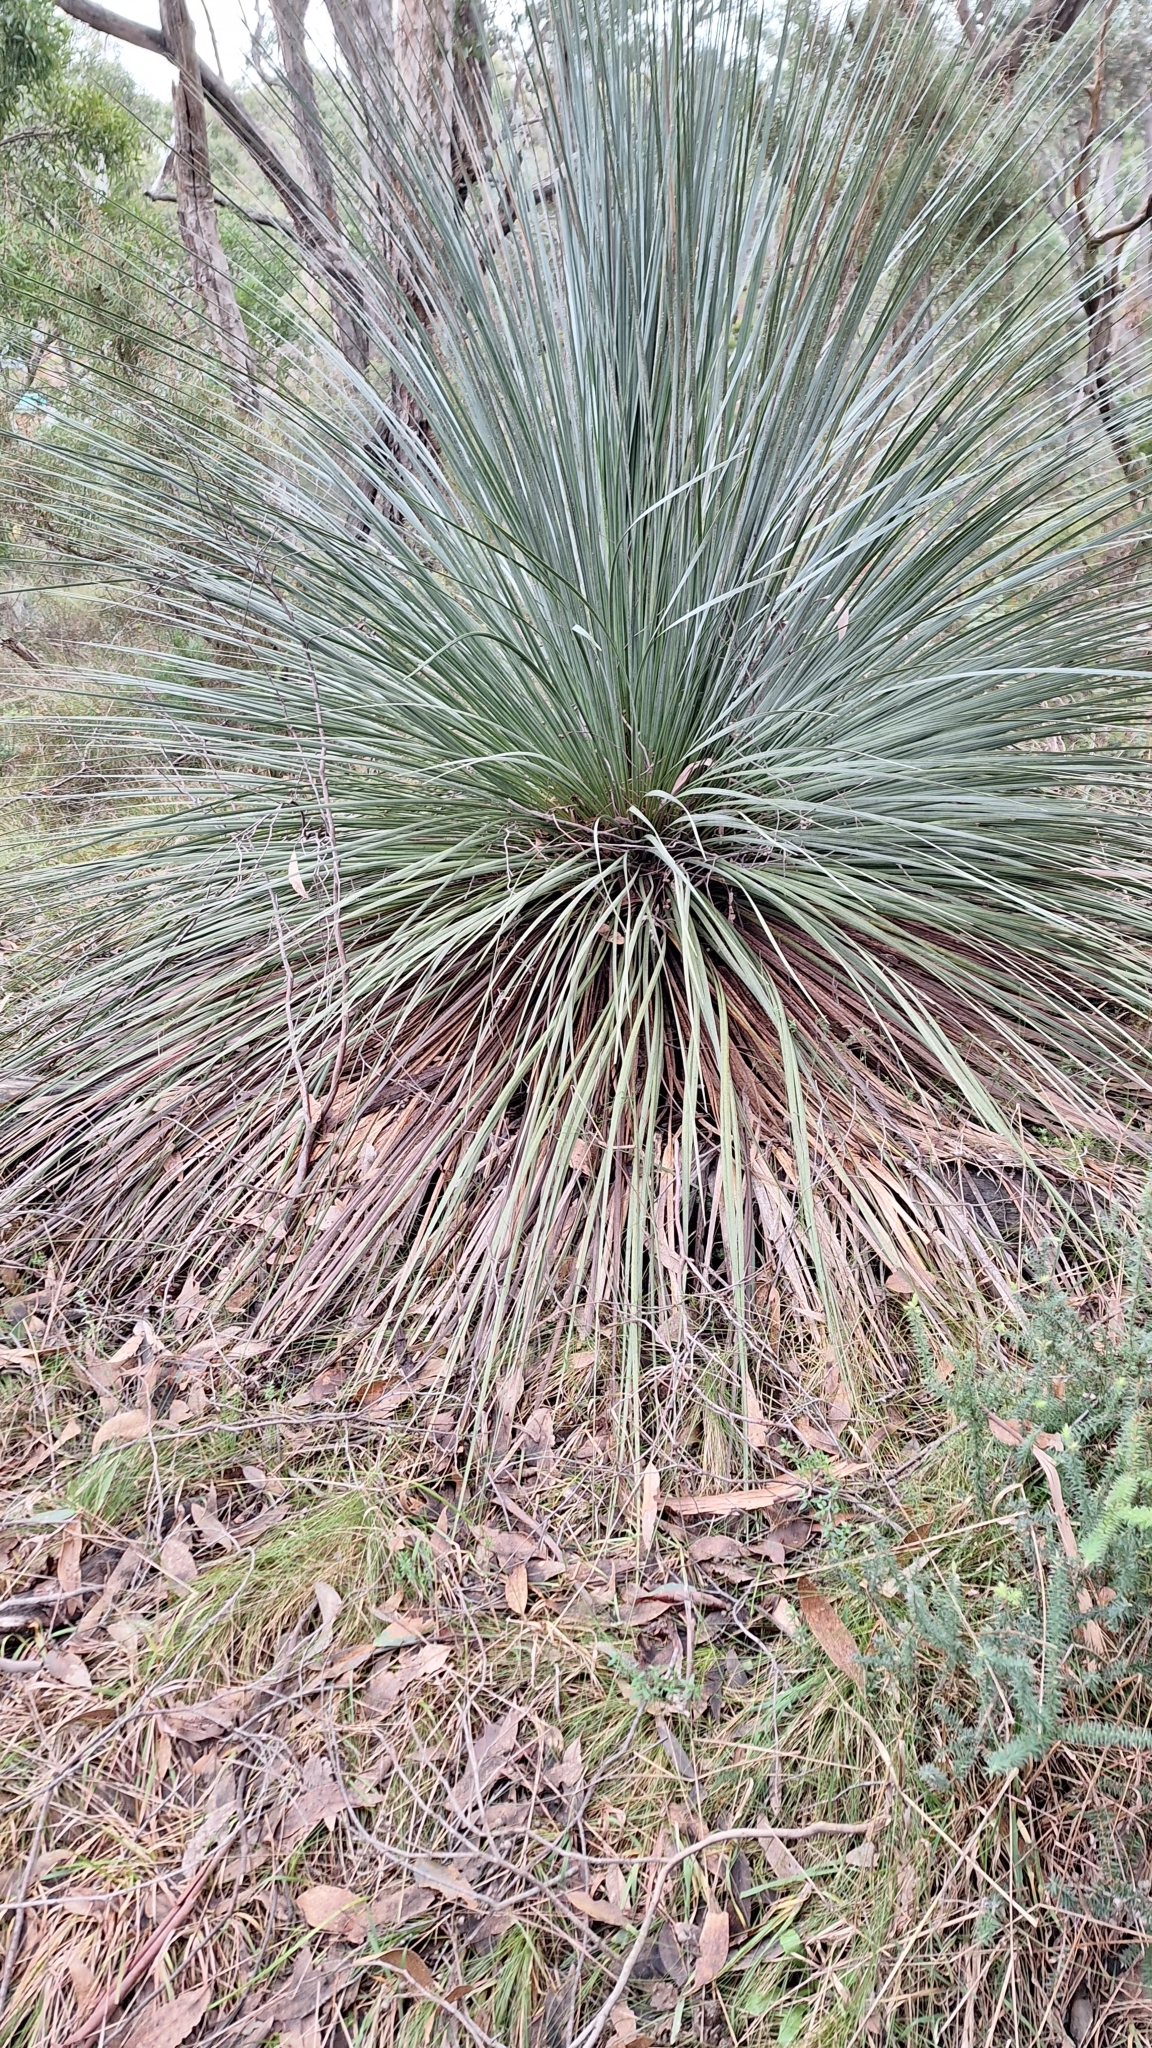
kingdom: Plantae
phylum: Tracheophyta
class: Liliopsida
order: Asparagales
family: Asphodelaceae
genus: Xanthorrhoea
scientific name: Xanthorrhoea semiplana
